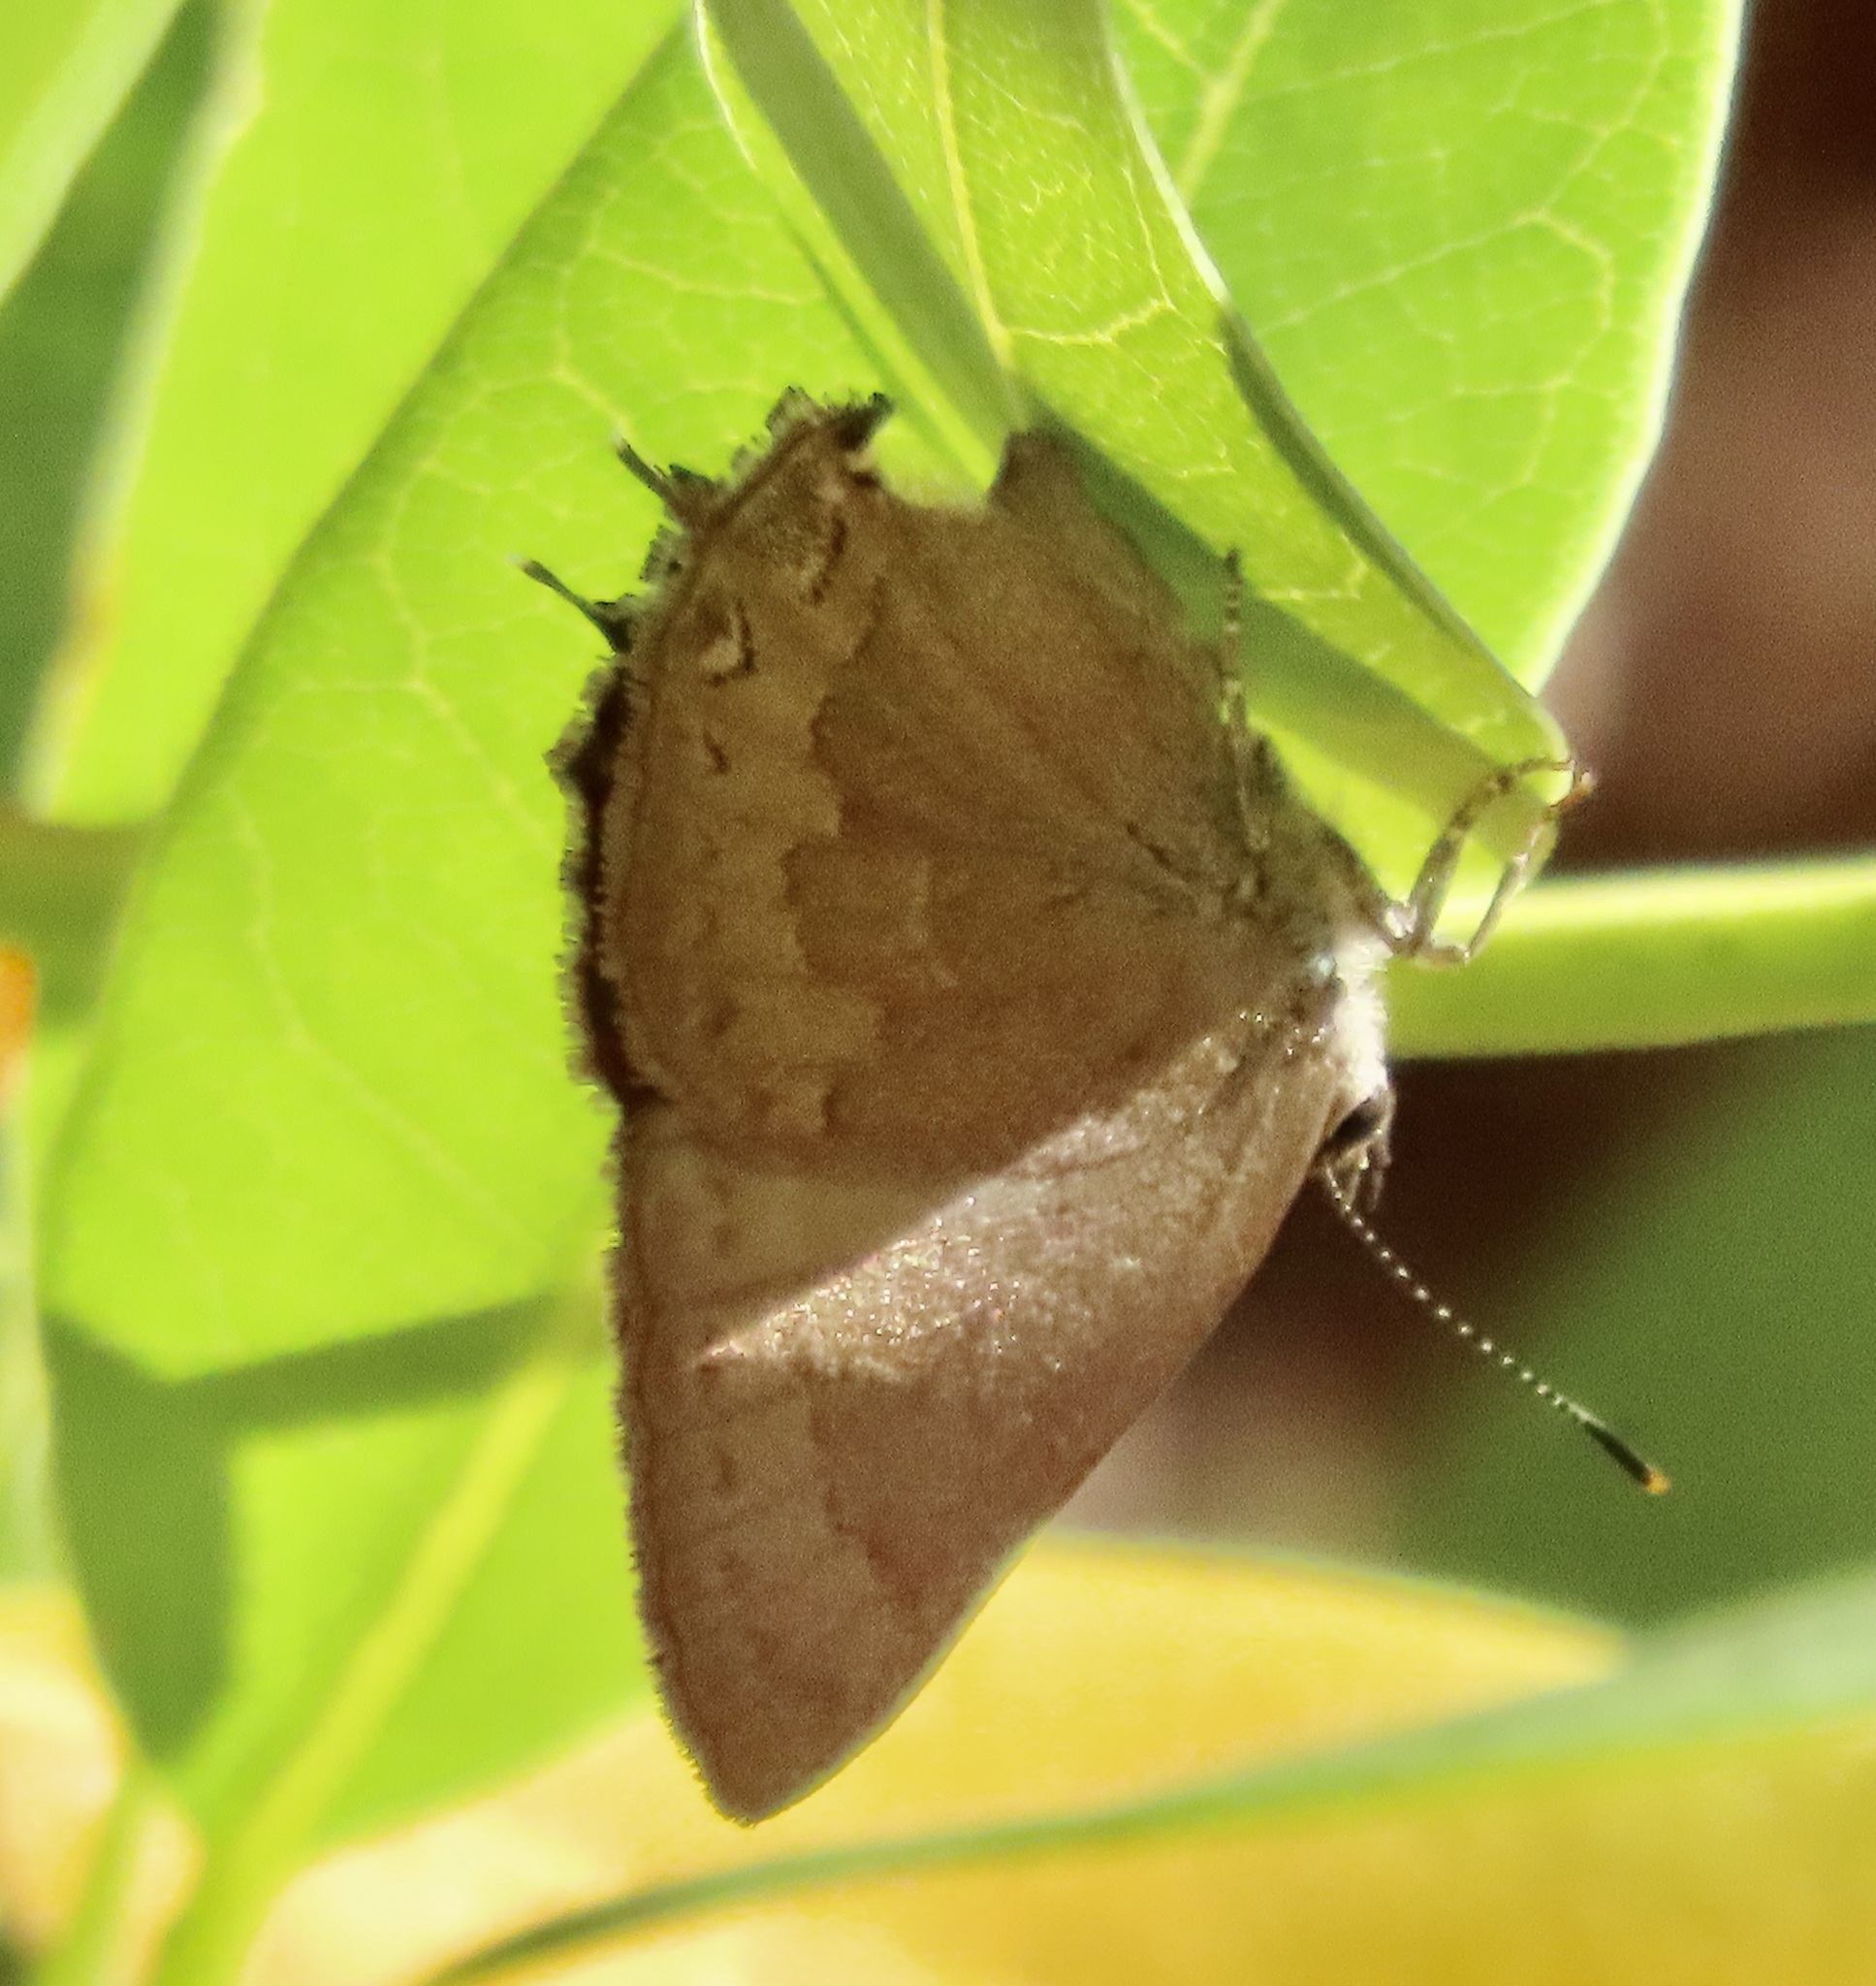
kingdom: Animalia
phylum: Arthropoda
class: Insecta
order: Lepidoptera
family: Lycaenidae
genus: Strymon
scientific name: Strymon saepium
